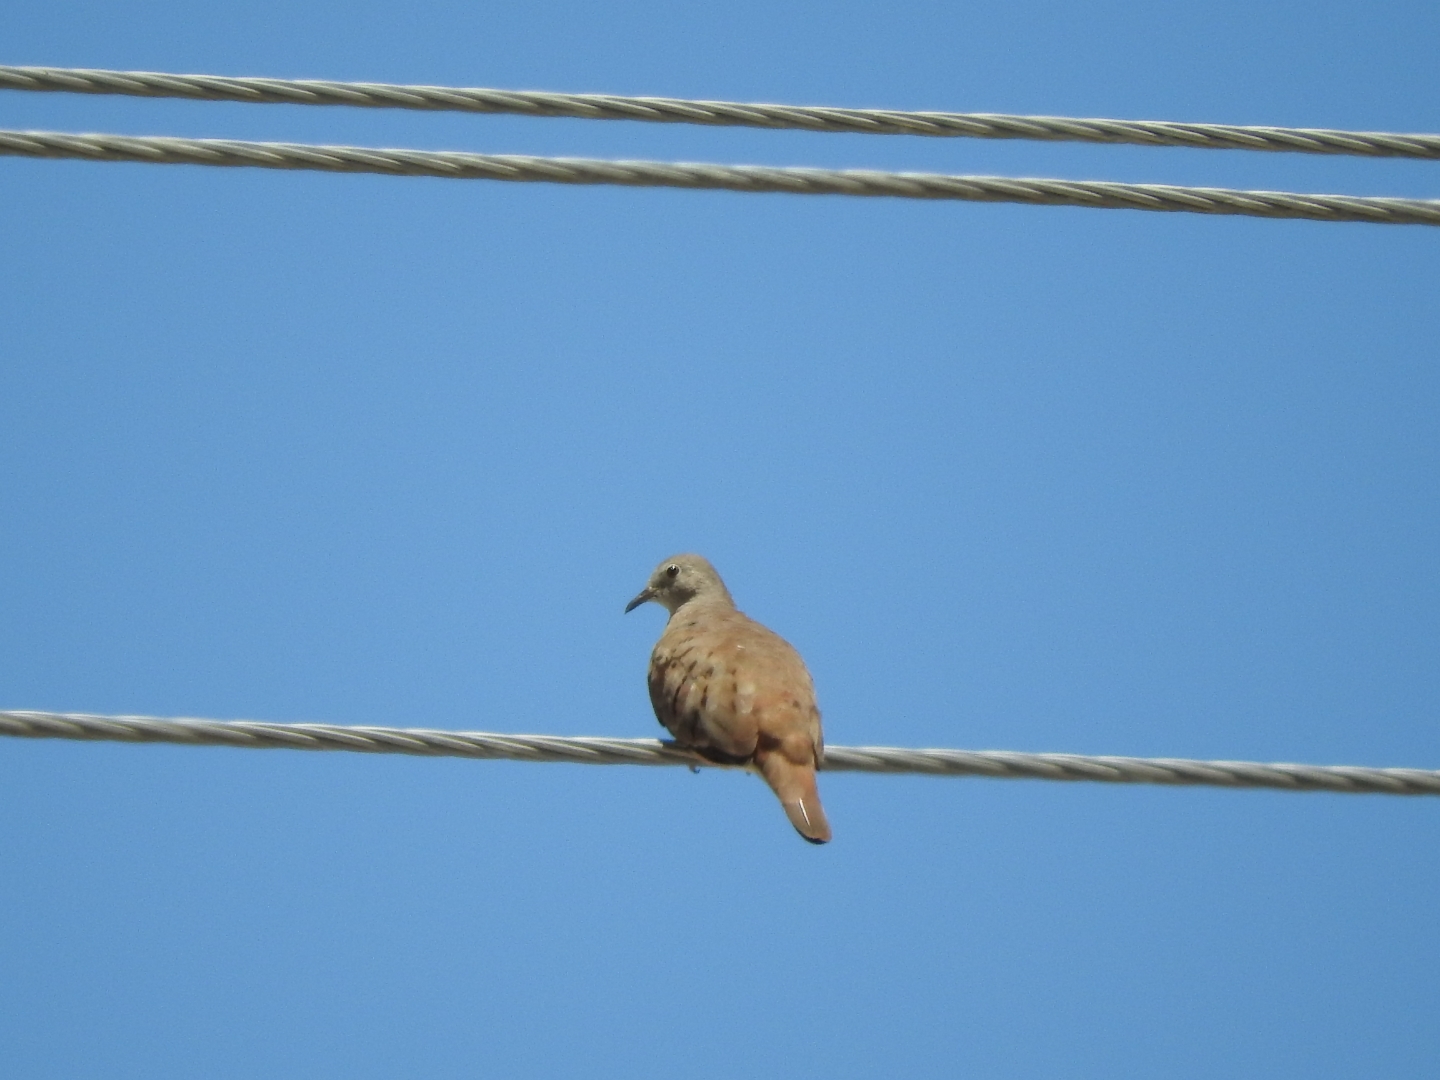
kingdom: Animalia
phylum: Chordata
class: Aves
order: Columbiformes
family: Columbidae
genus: Columbina
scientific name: Columbina talpacoti
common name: Ruddy ground dove
